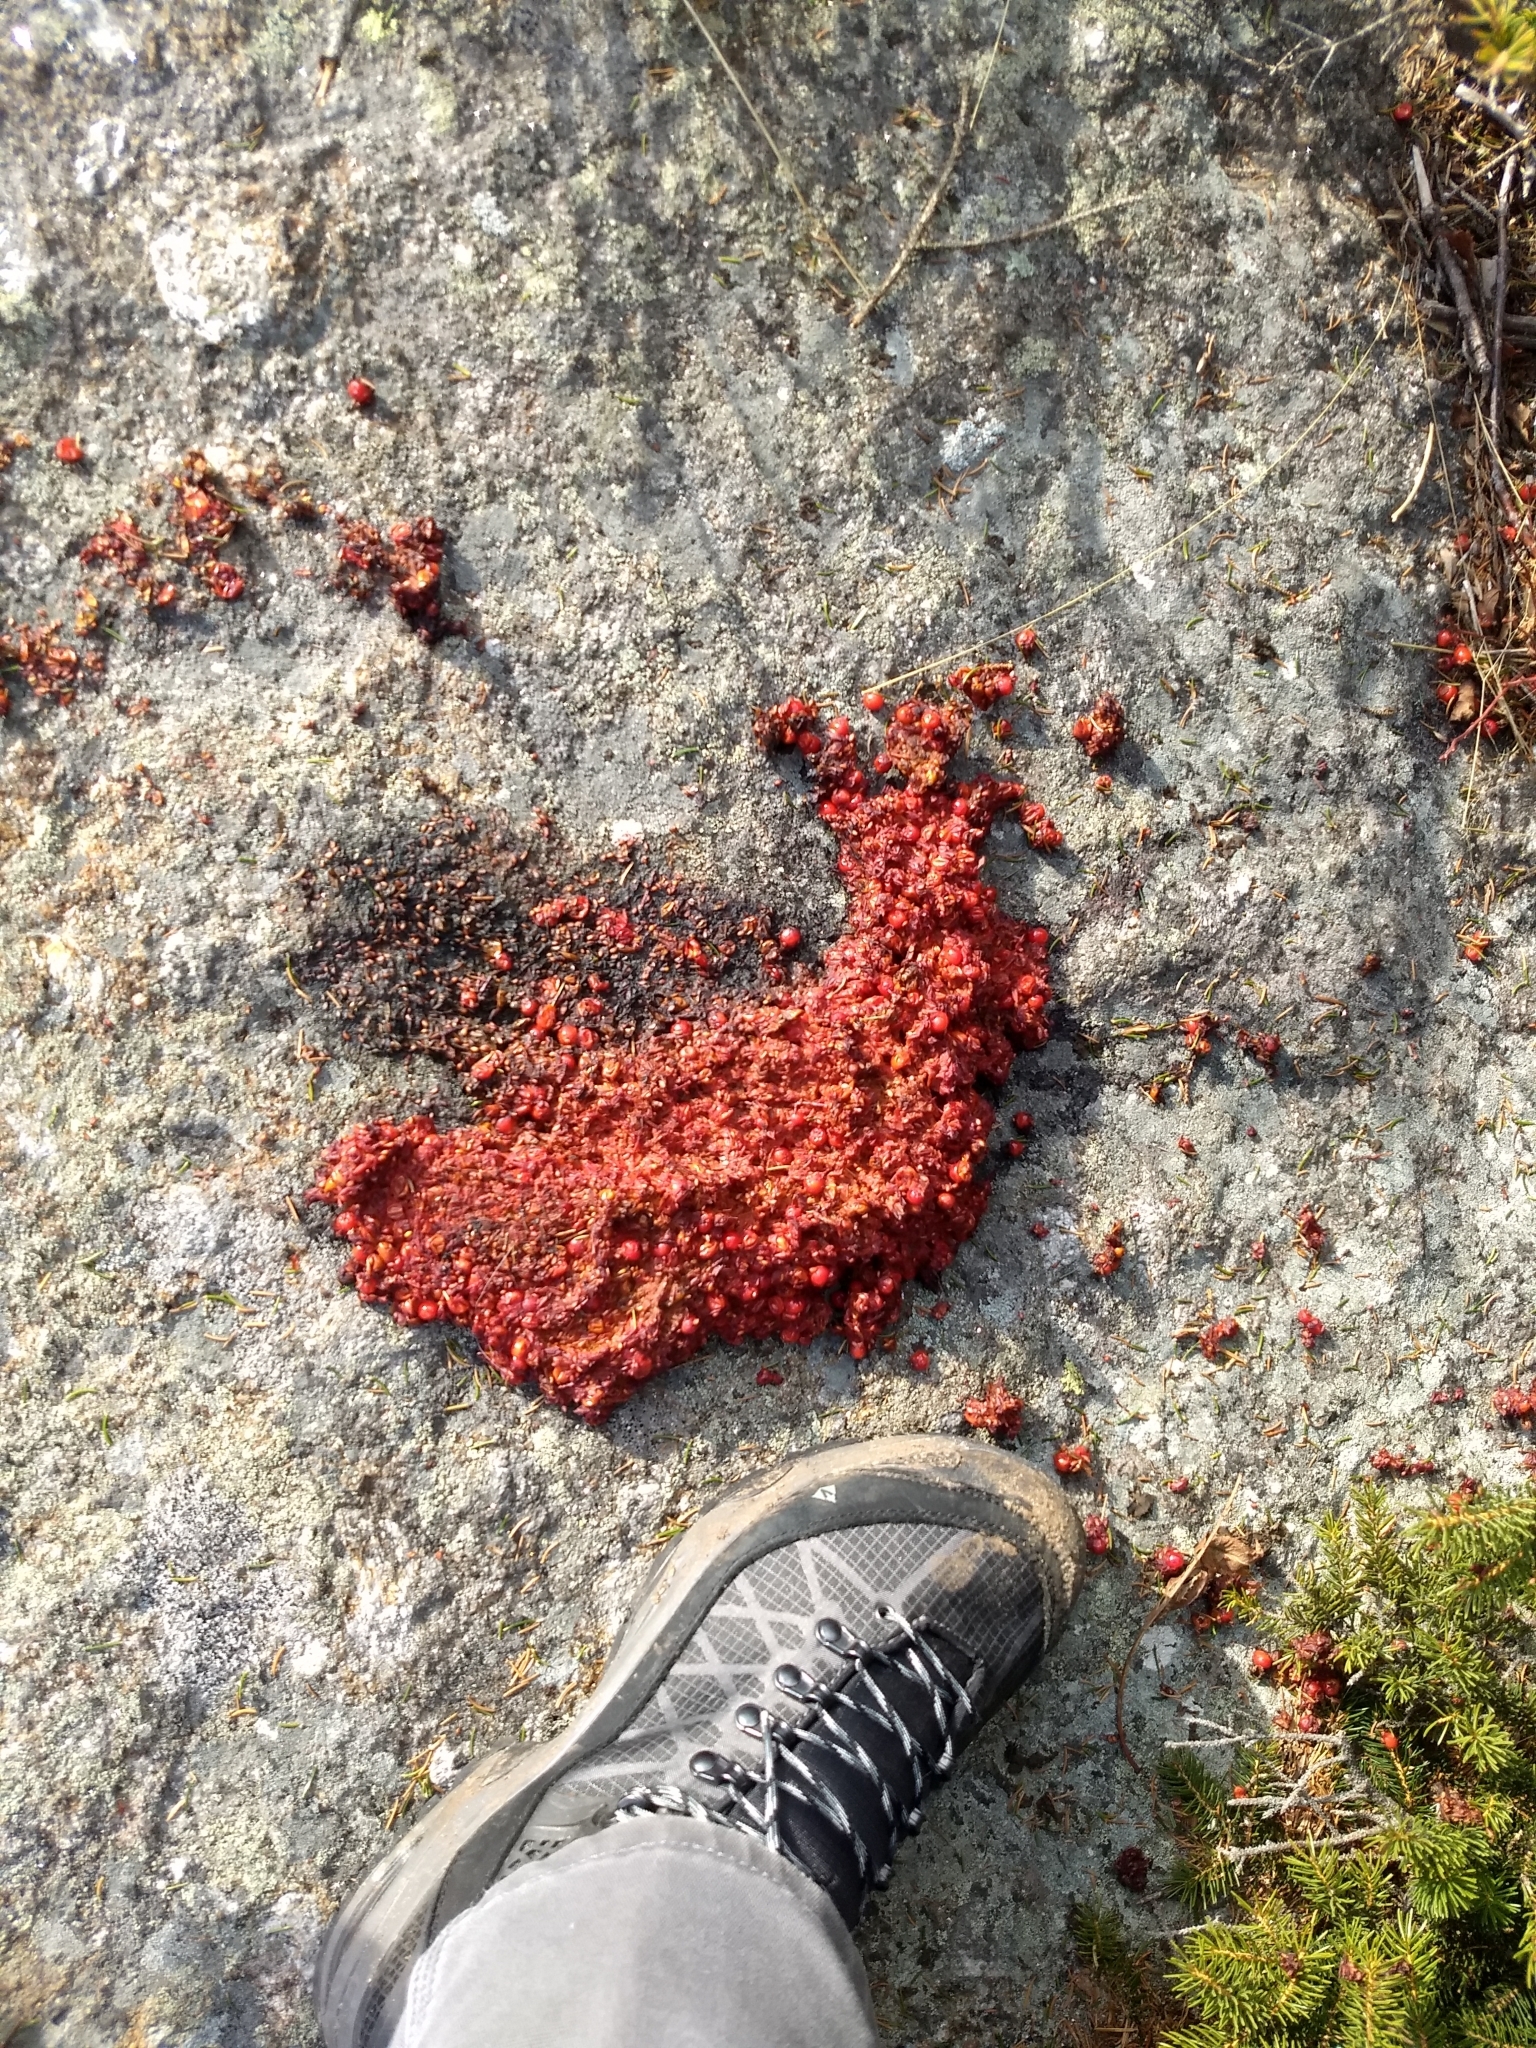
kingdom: Animalia
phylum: Chordata
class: Mammalia
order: Carnivora
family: Ursidae
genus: Ursus
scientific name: Ursus americanus
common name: American black bear
